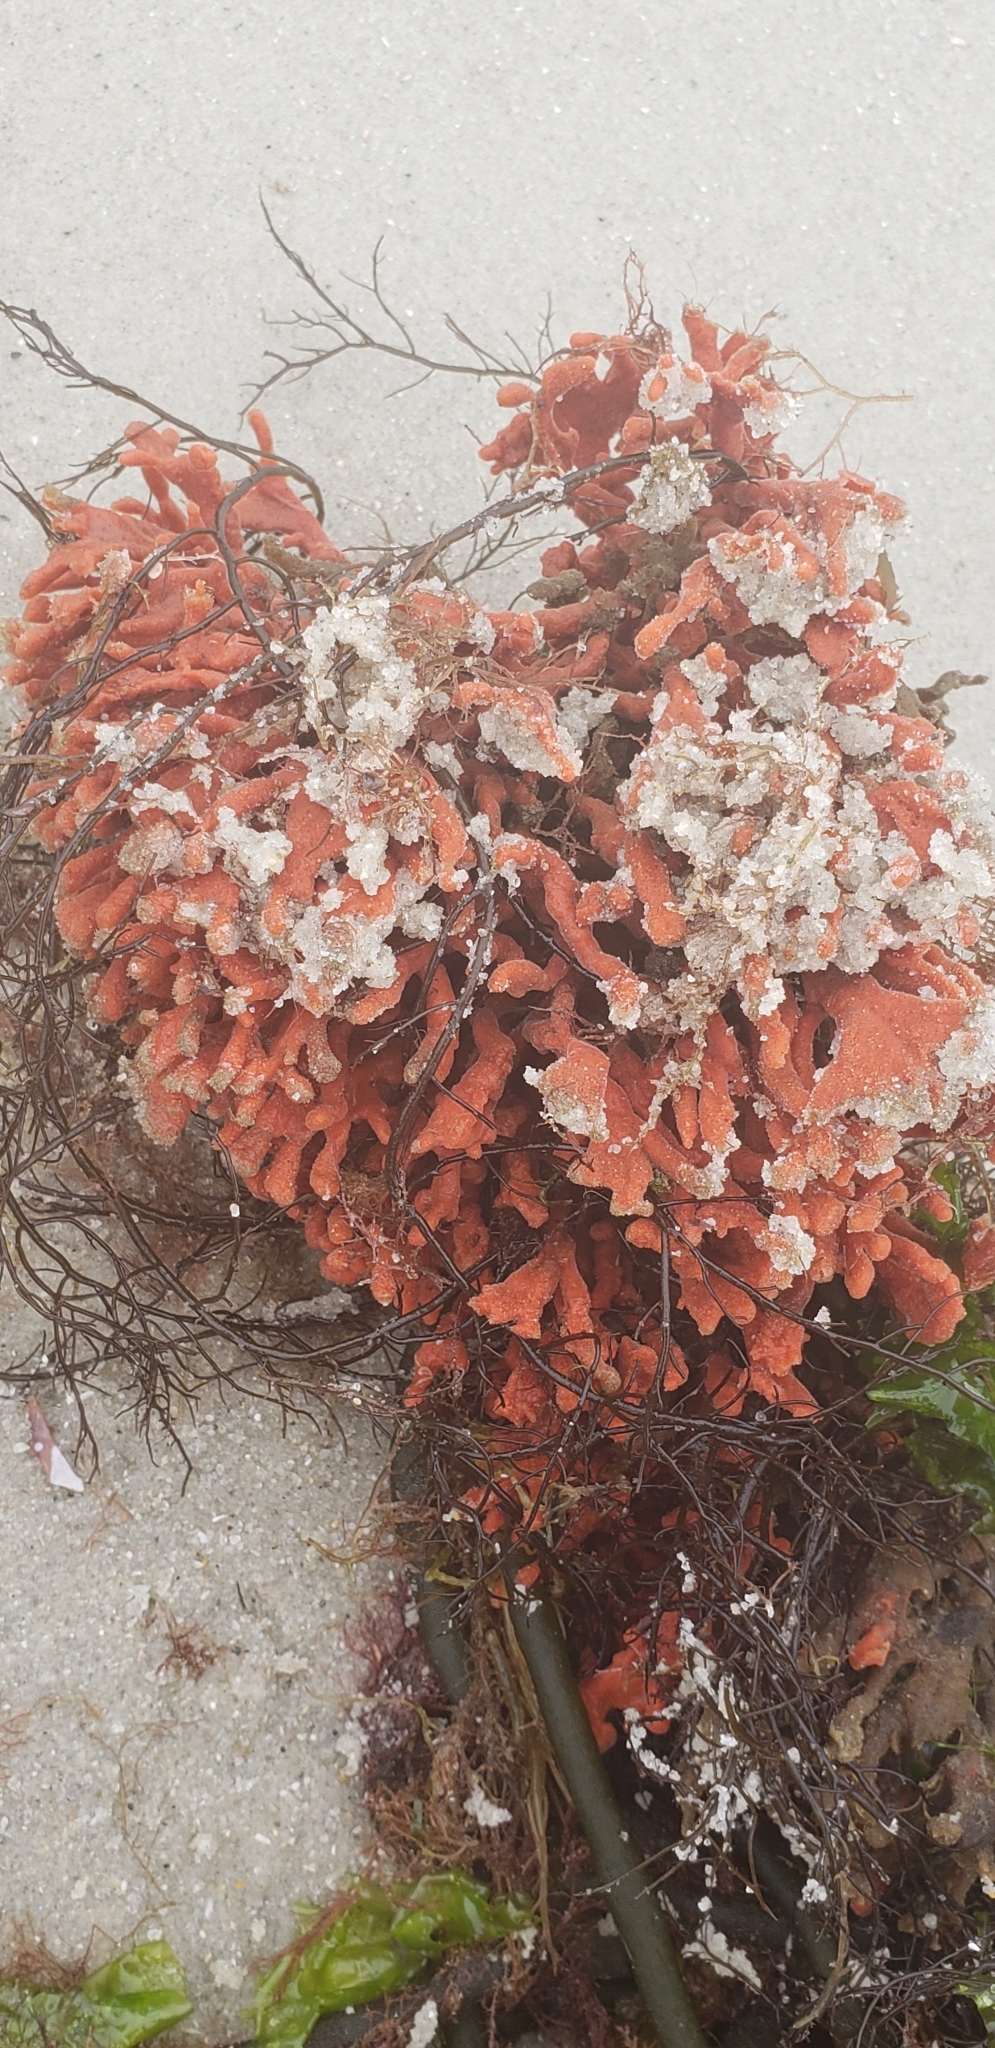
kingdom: Animalia
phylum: Porifera
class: Demospongiae
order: Poecilosclerida
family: Microcionidae
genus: Clathria
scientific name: Clathria prolifera
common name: Red beard sponge
